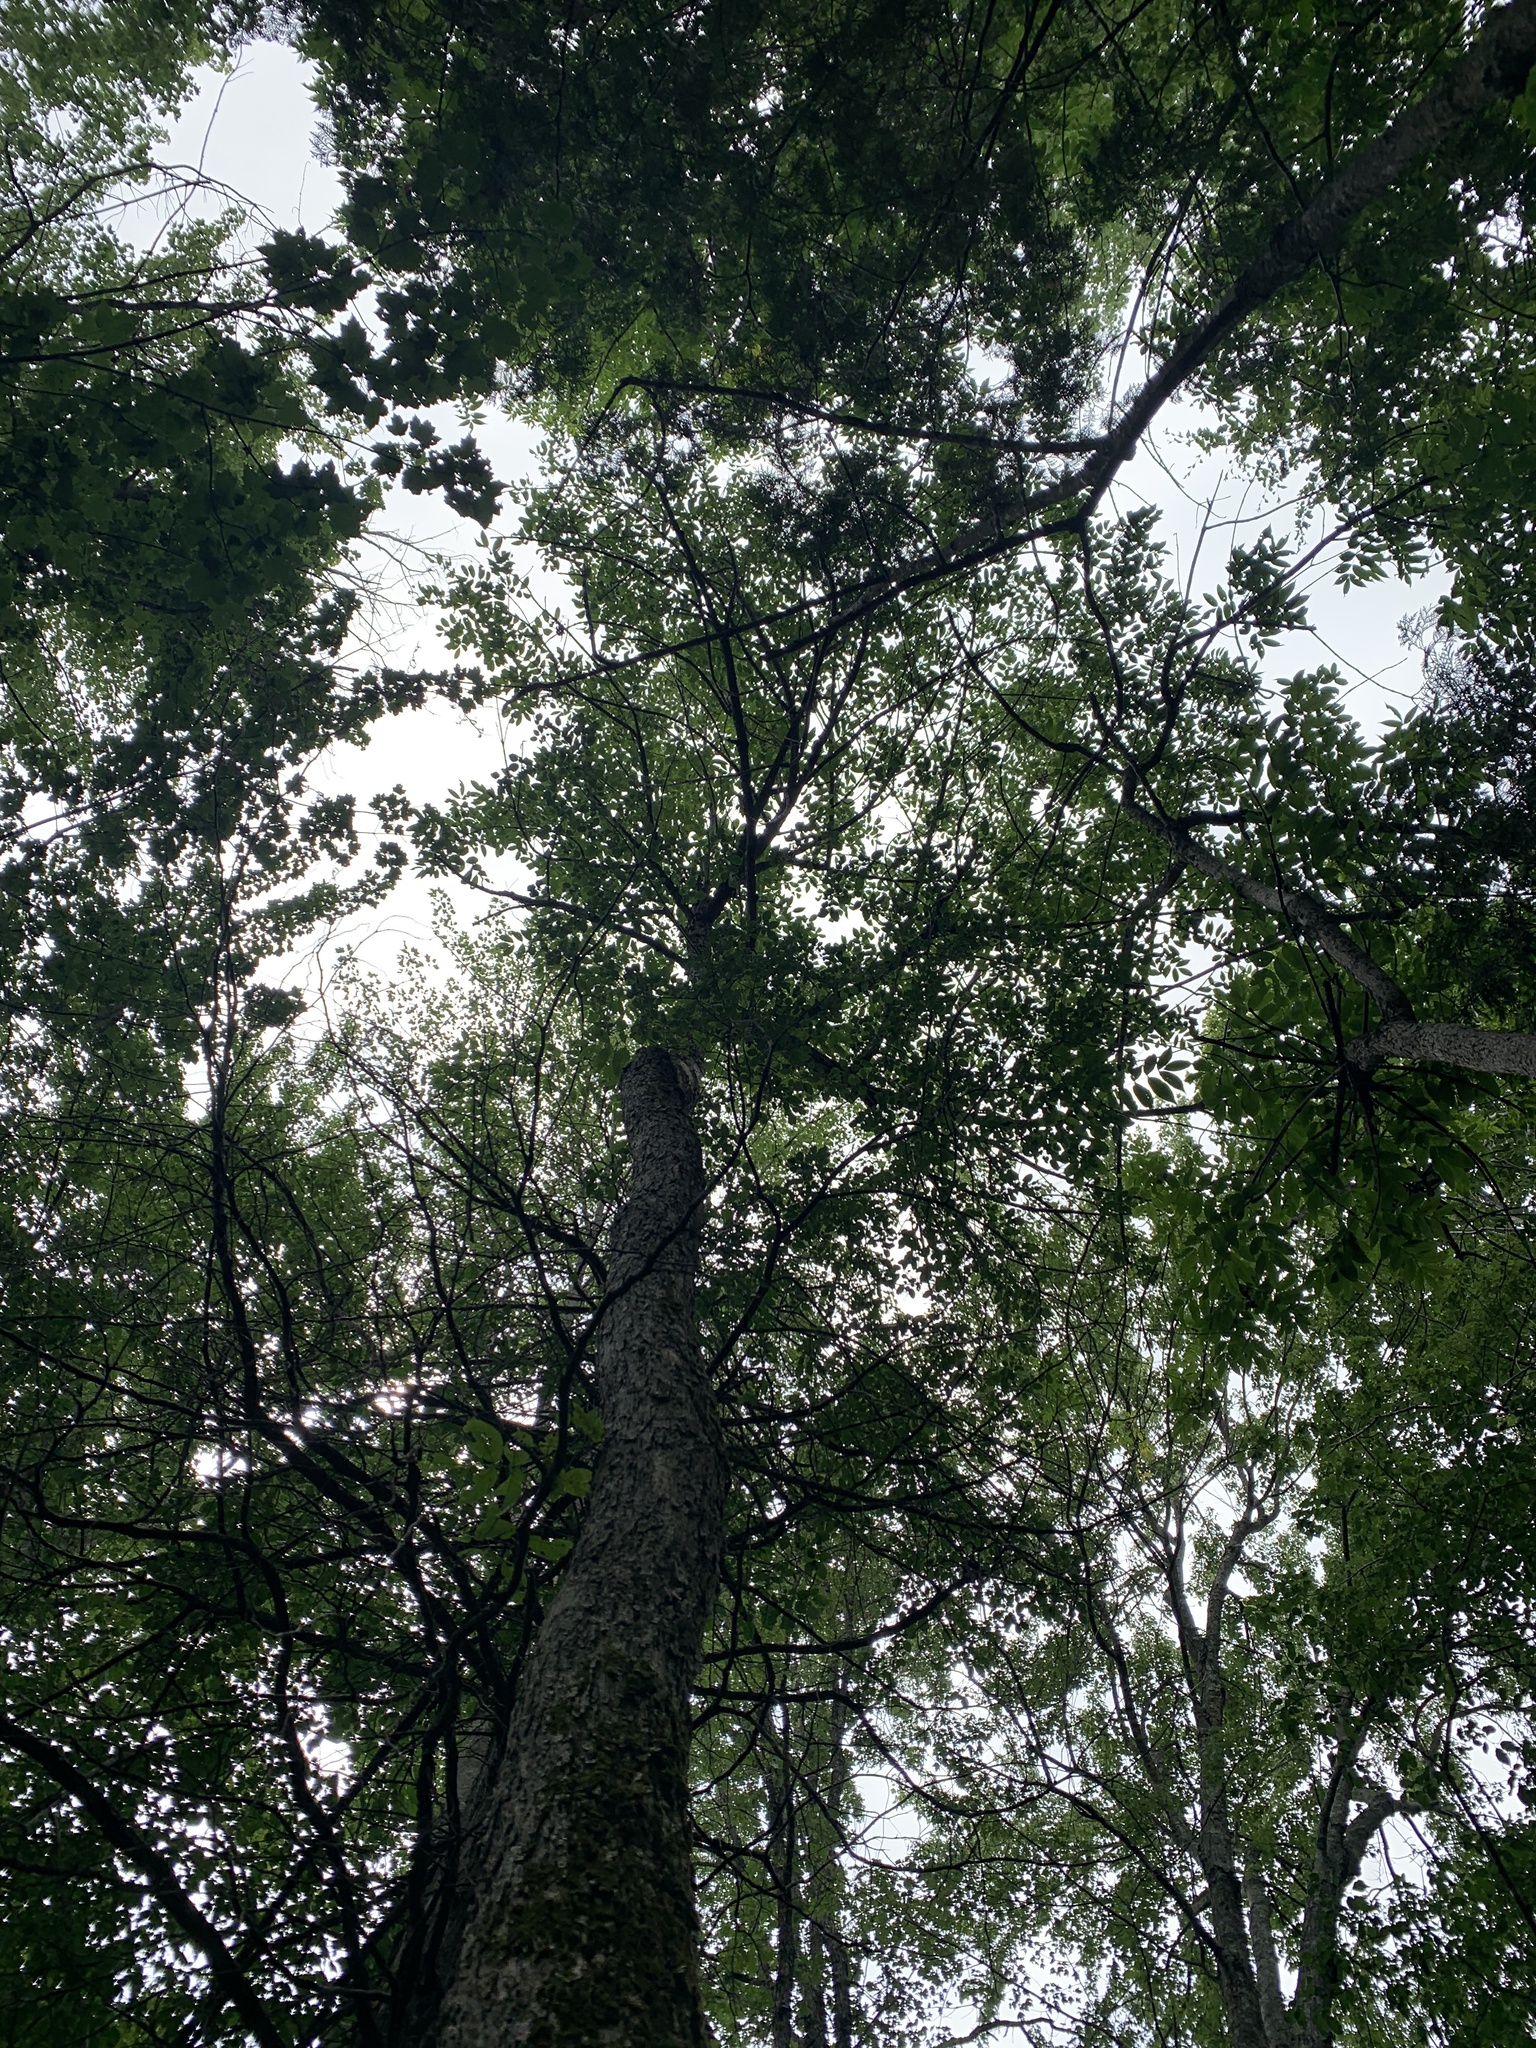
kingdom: Plantae
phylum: Tracheophyta
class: Magnoliopsida
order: Lamiales
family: Oleaceae
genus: Fraxinus
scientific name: Fraxinus nigra
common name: Black ash
